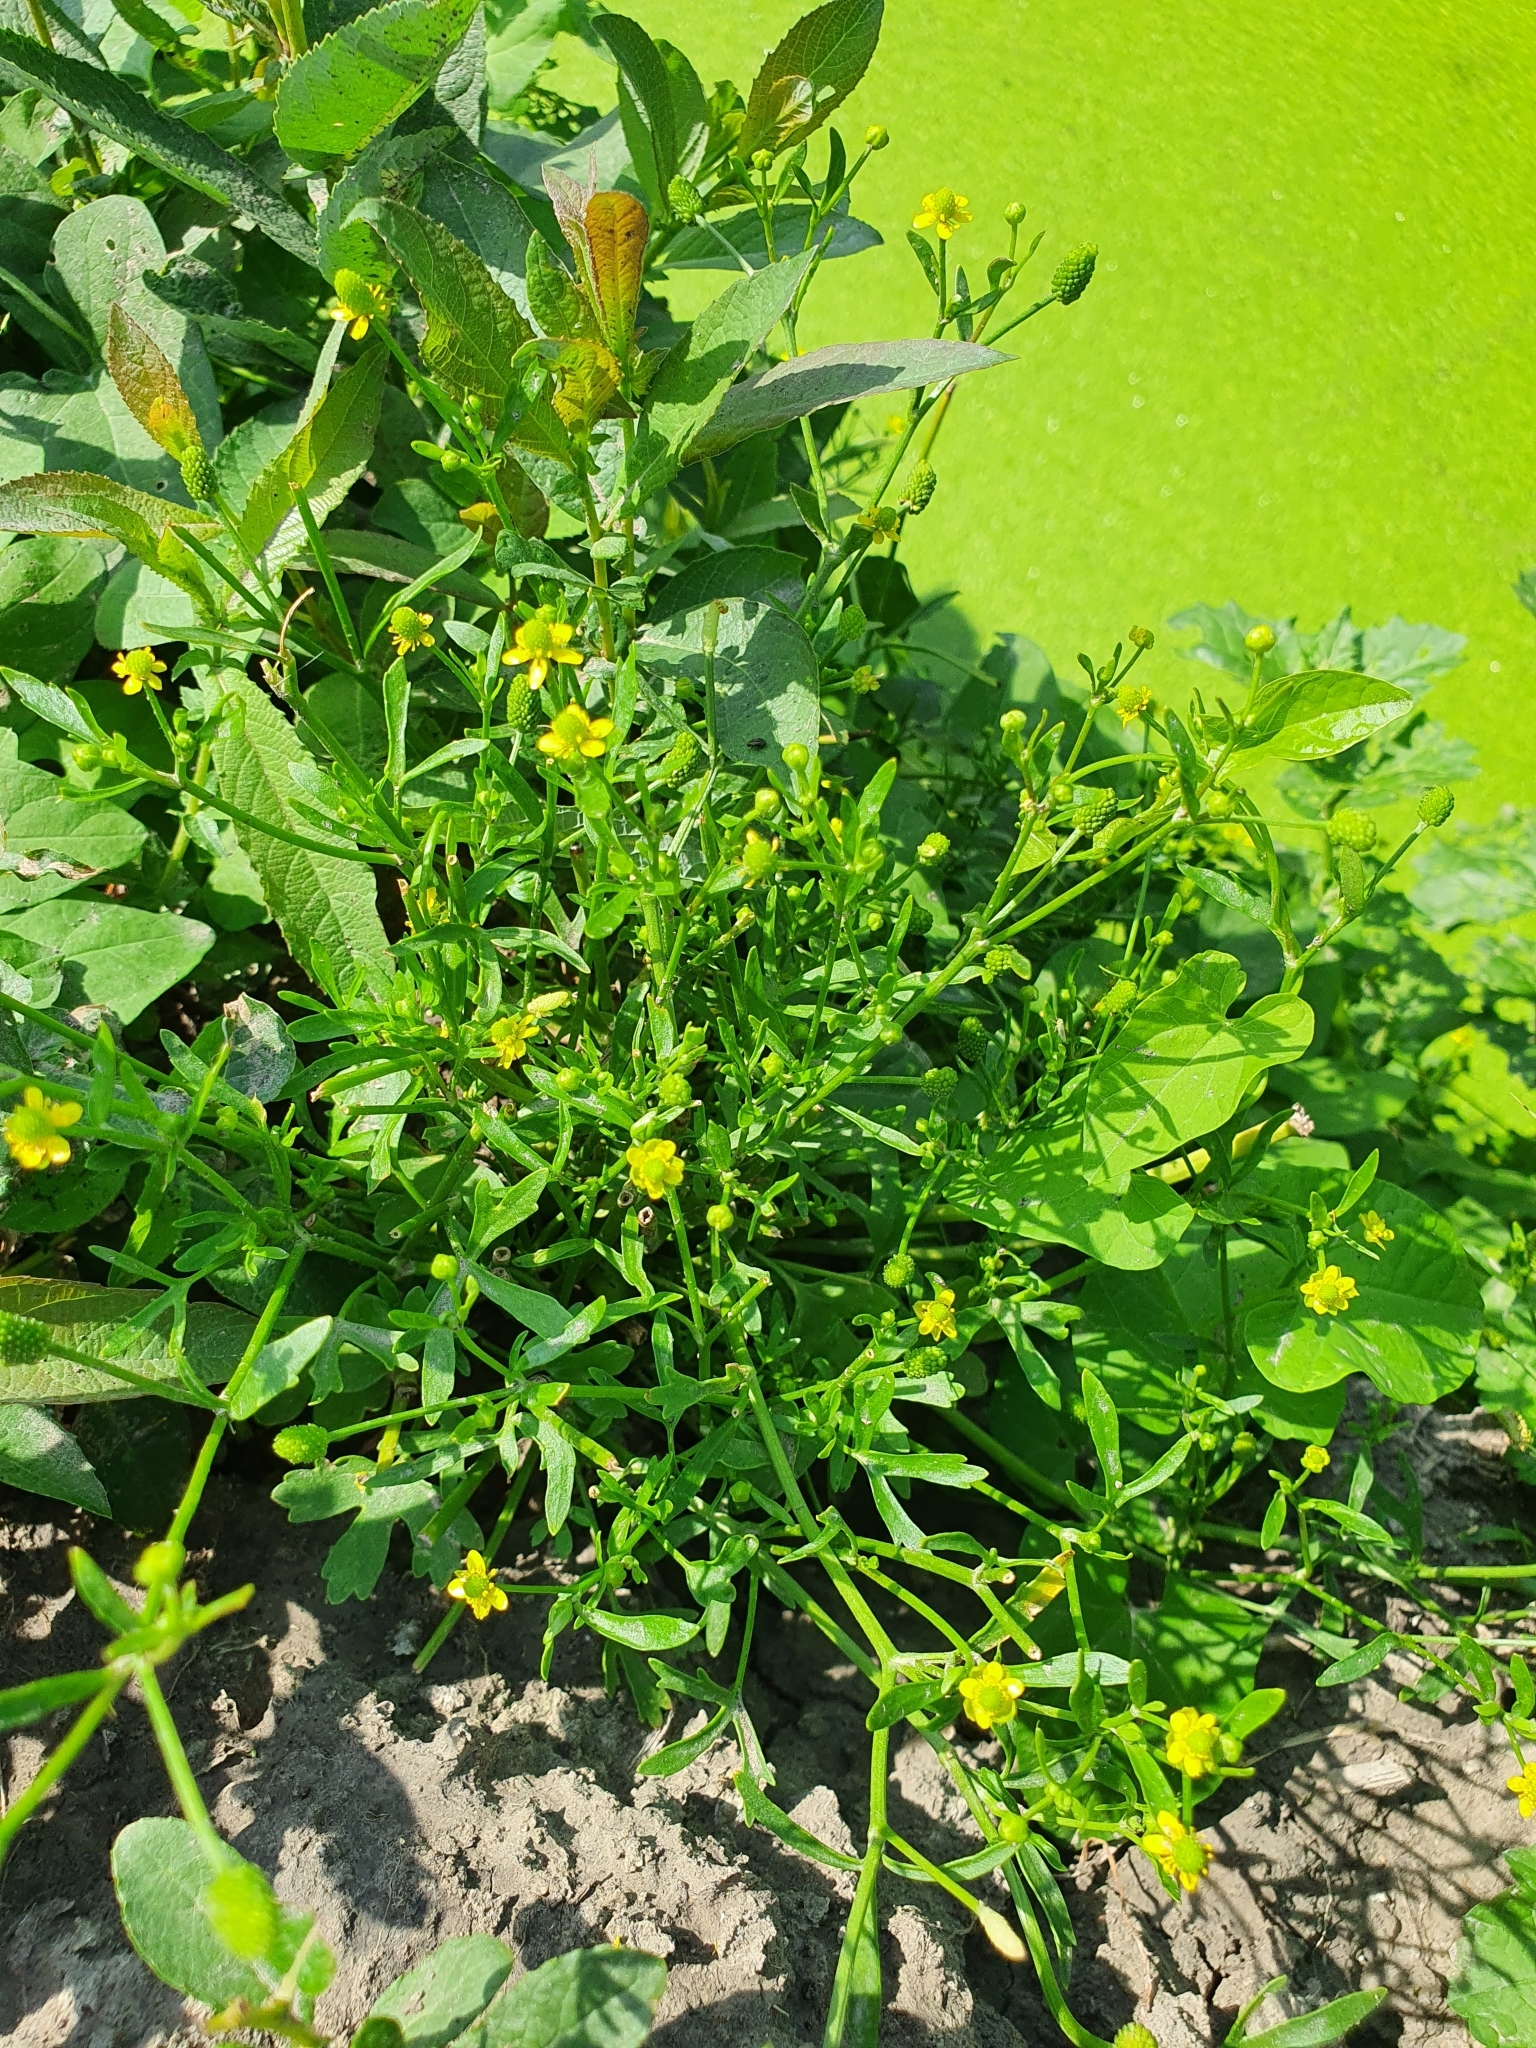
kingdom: Plantae
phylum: Tracheophyta
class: Magnoliopsida
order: Ranunculales
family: Ranunculaceae
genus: Ranunculus
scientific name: Ranunculus sceleratus
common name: Celery-leaved buttercup
